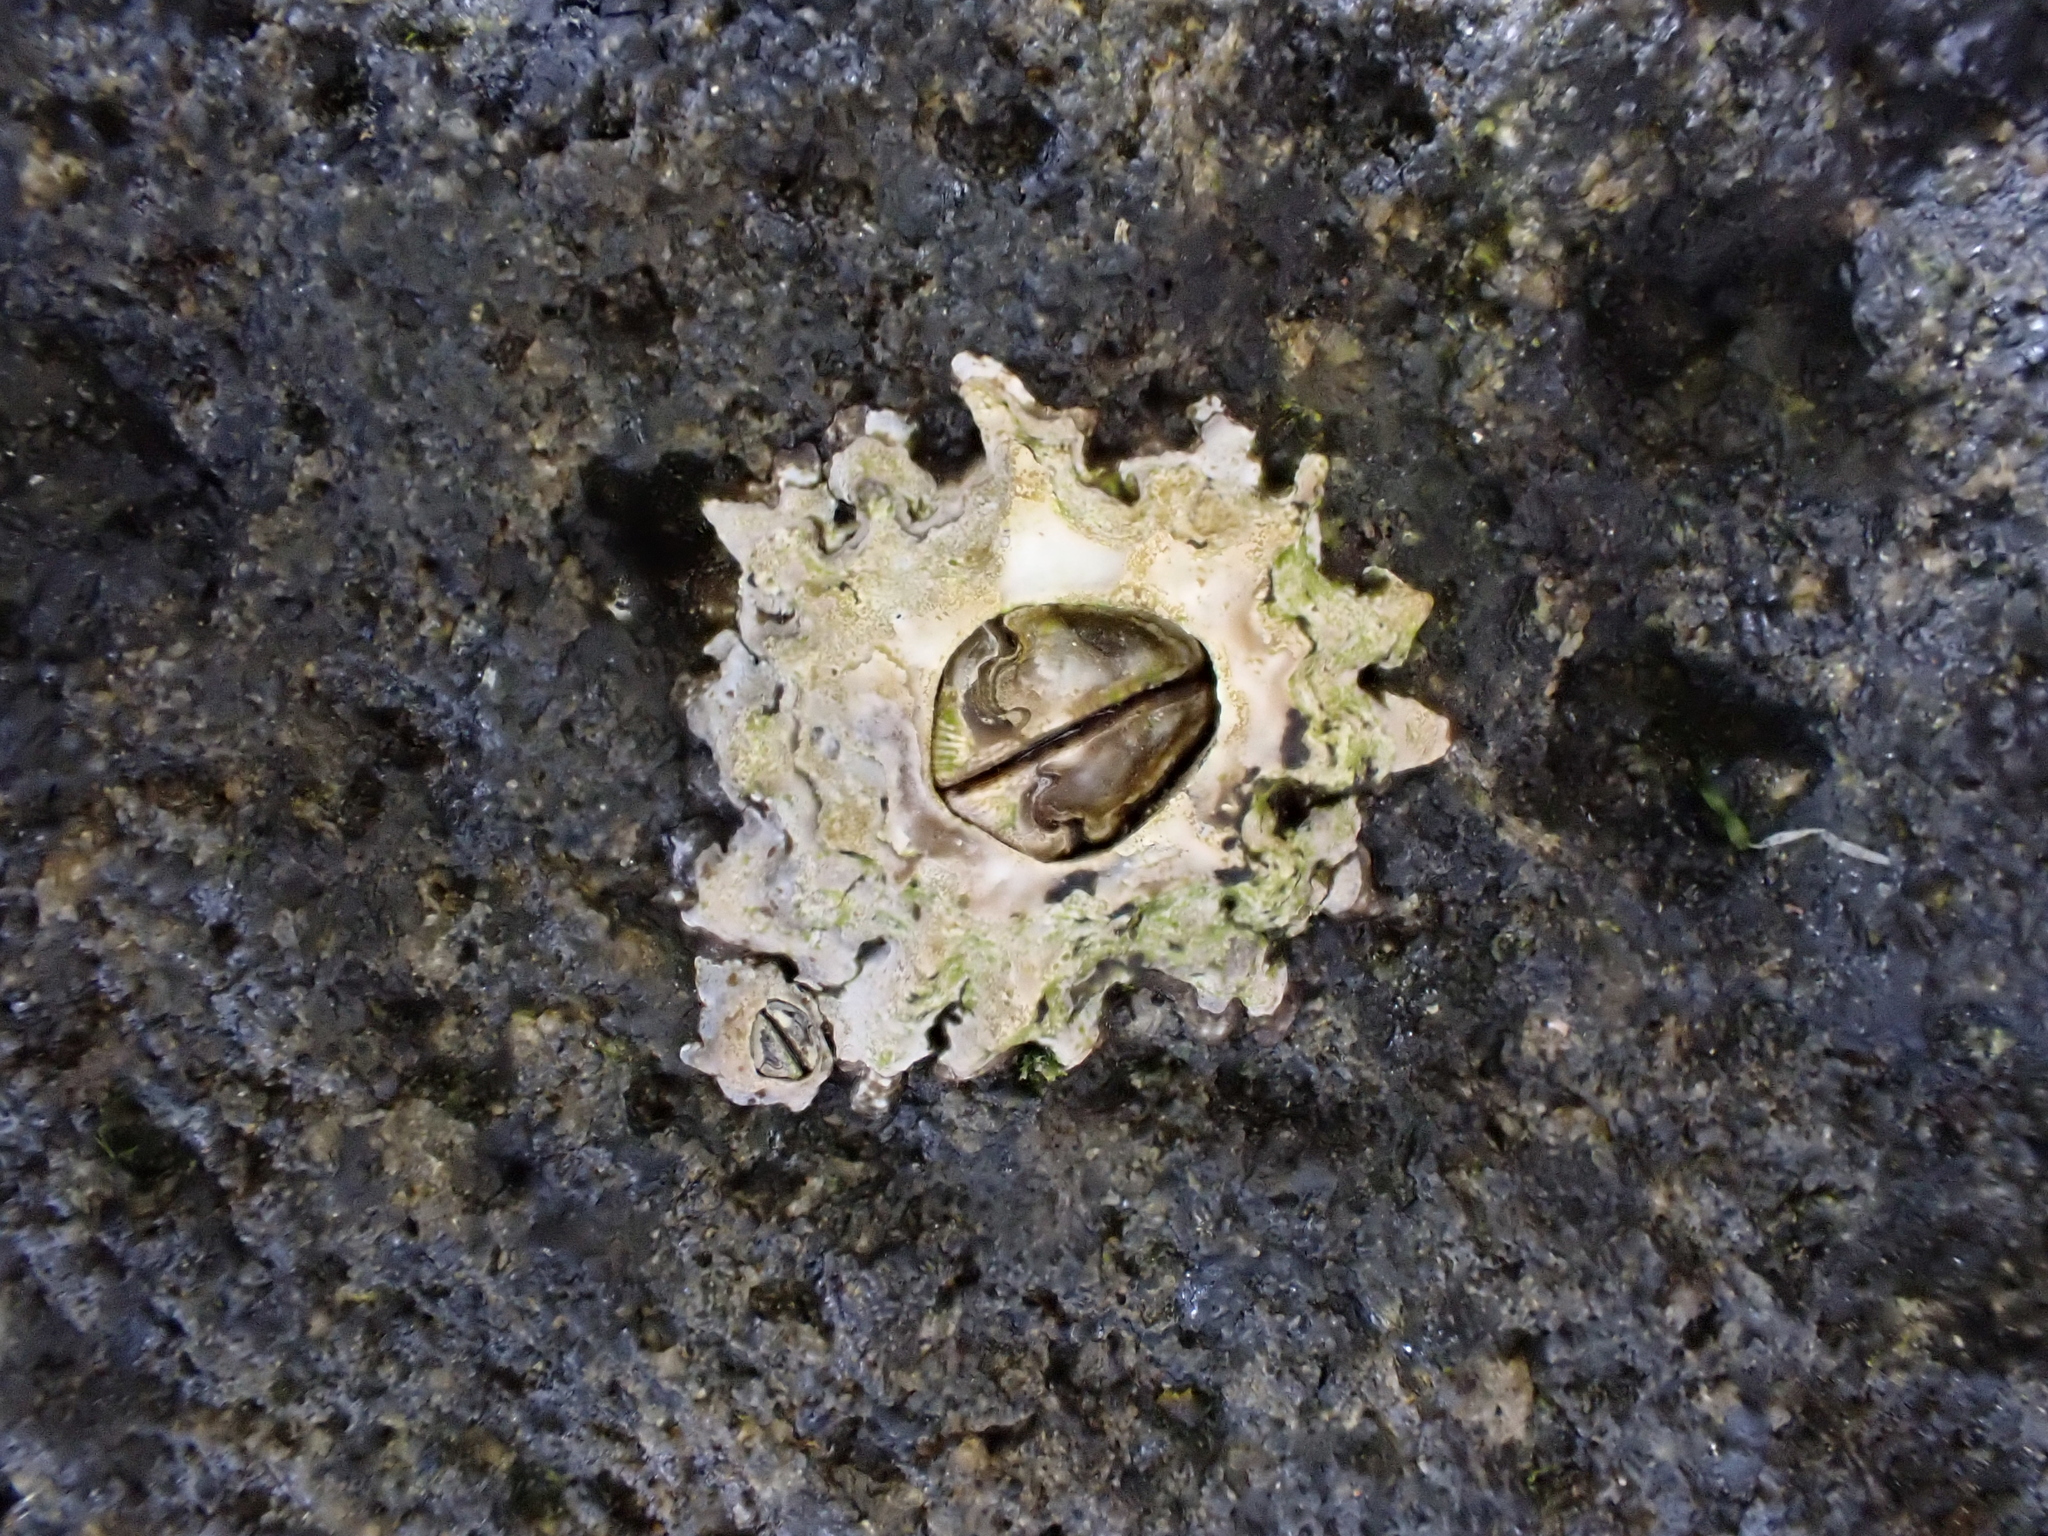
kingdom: Animalia
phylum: Arthropoda
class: Maxillopoda
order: Sessilia
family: Tetraclitidae
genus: Epopella
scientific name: Epopella plicata
